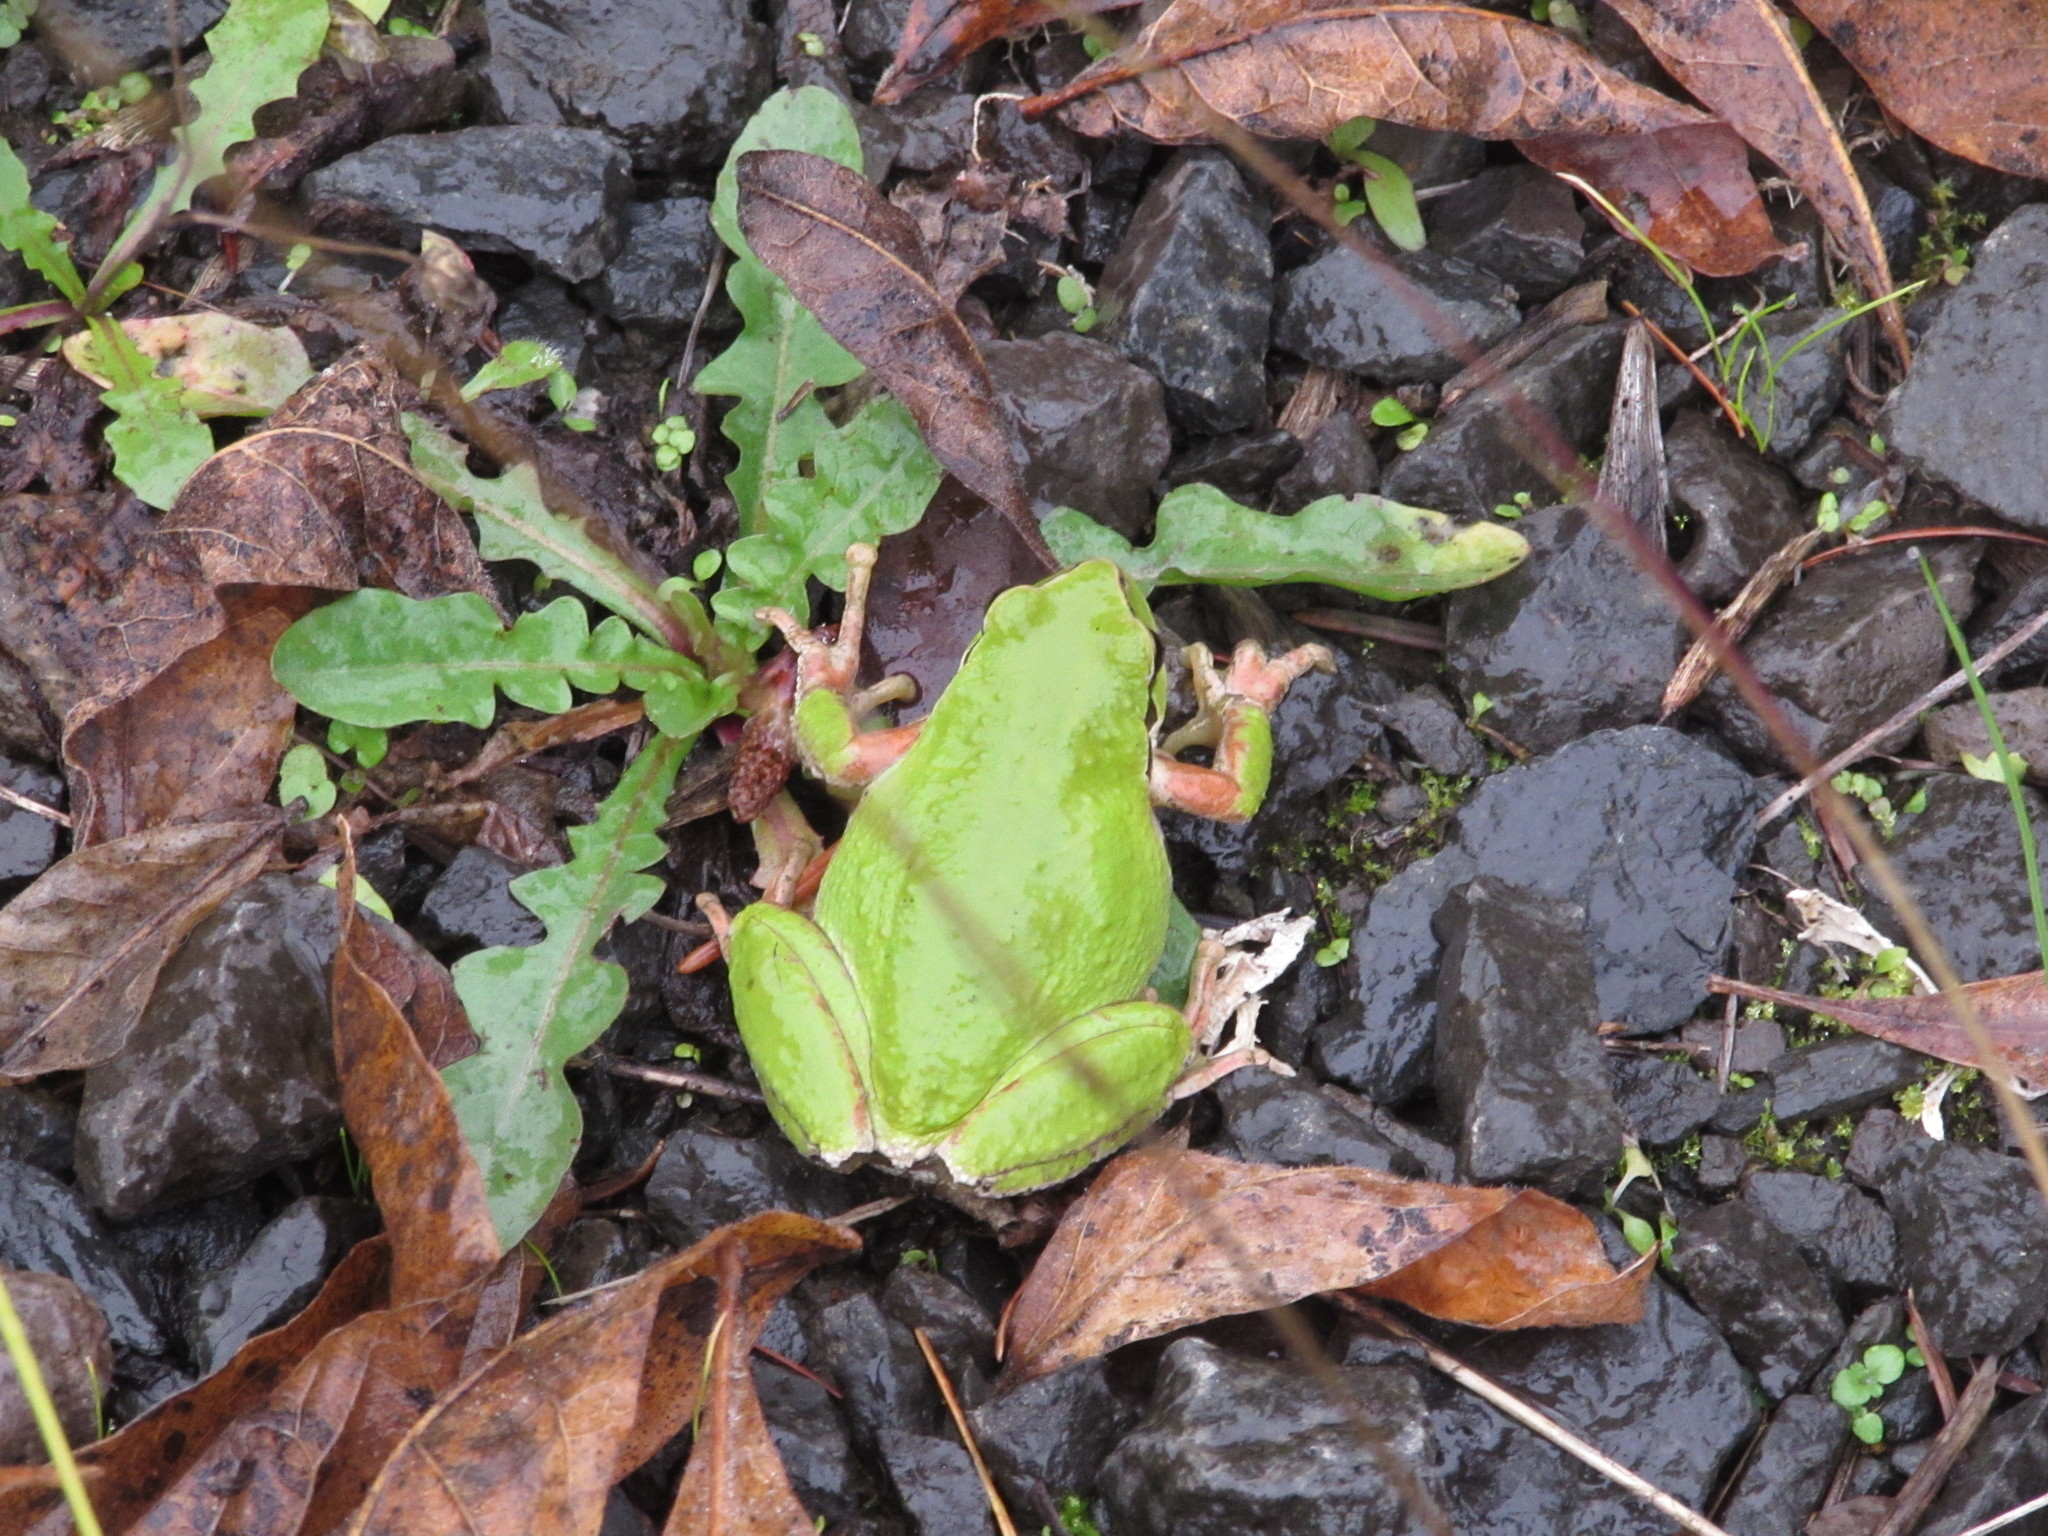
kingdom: Animalia
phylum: Chordata
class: Amphibia
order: Anura
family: Hylidae
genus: Pseudacris
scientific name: Pseudacris regilla
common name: Pacific chorus frog
